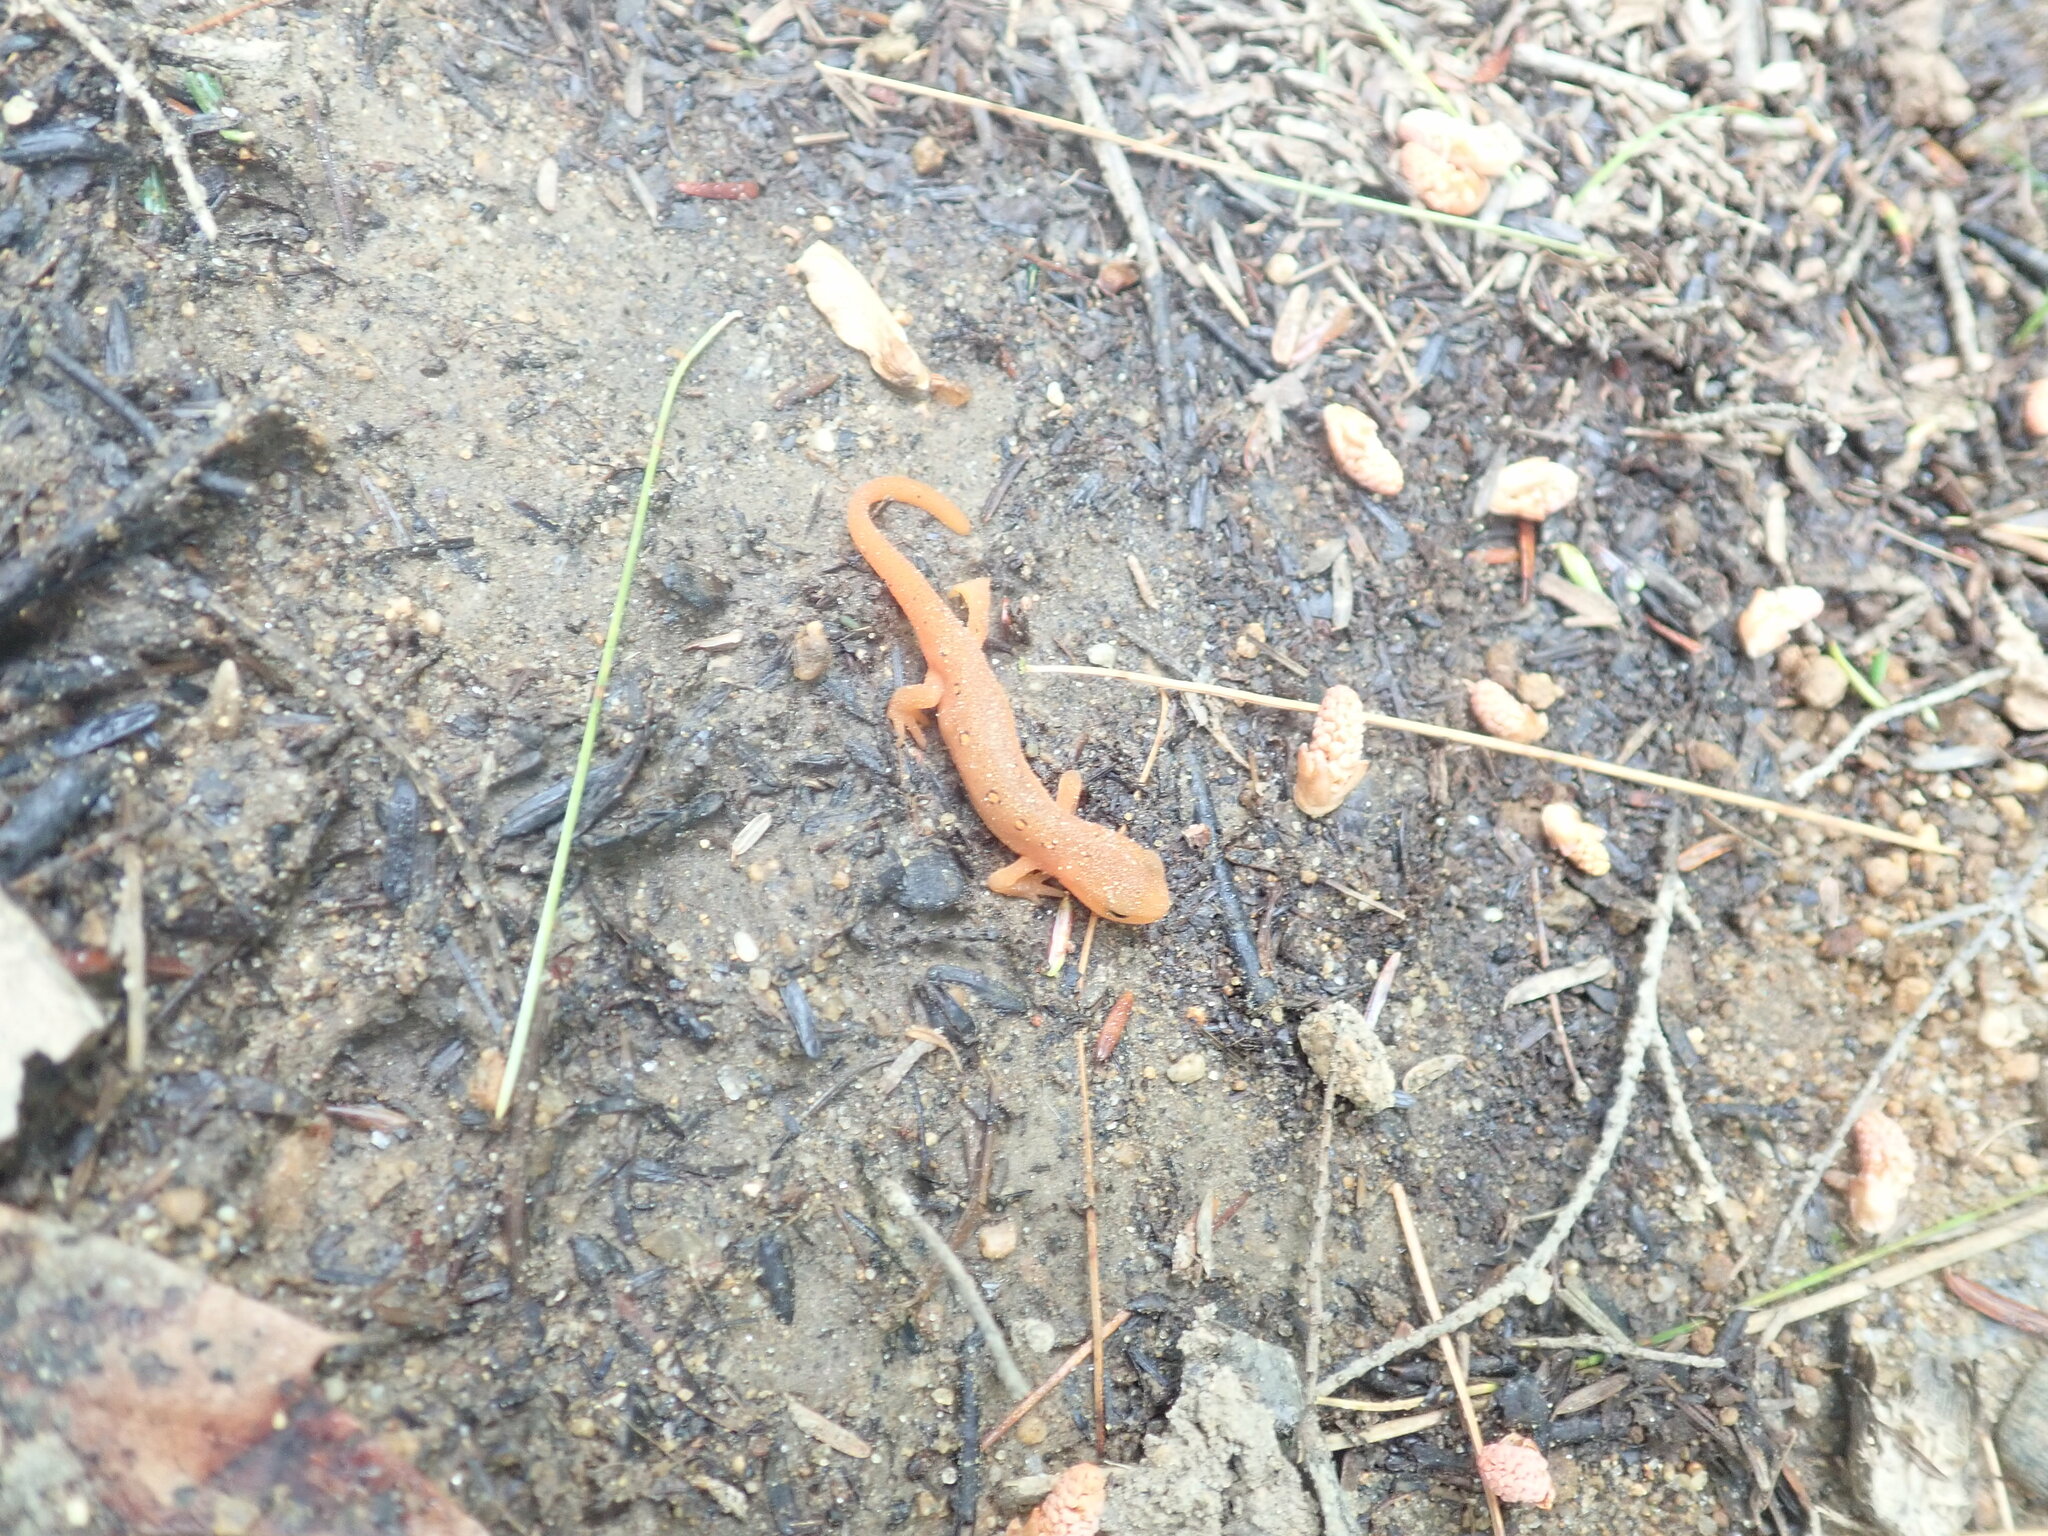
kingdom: Animalia
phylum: Chordata
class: Amphibia
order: Caudata
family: Salamandridae
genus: Notophthalmus
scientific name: Notophthalmus viridescens
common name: Eastern newt
